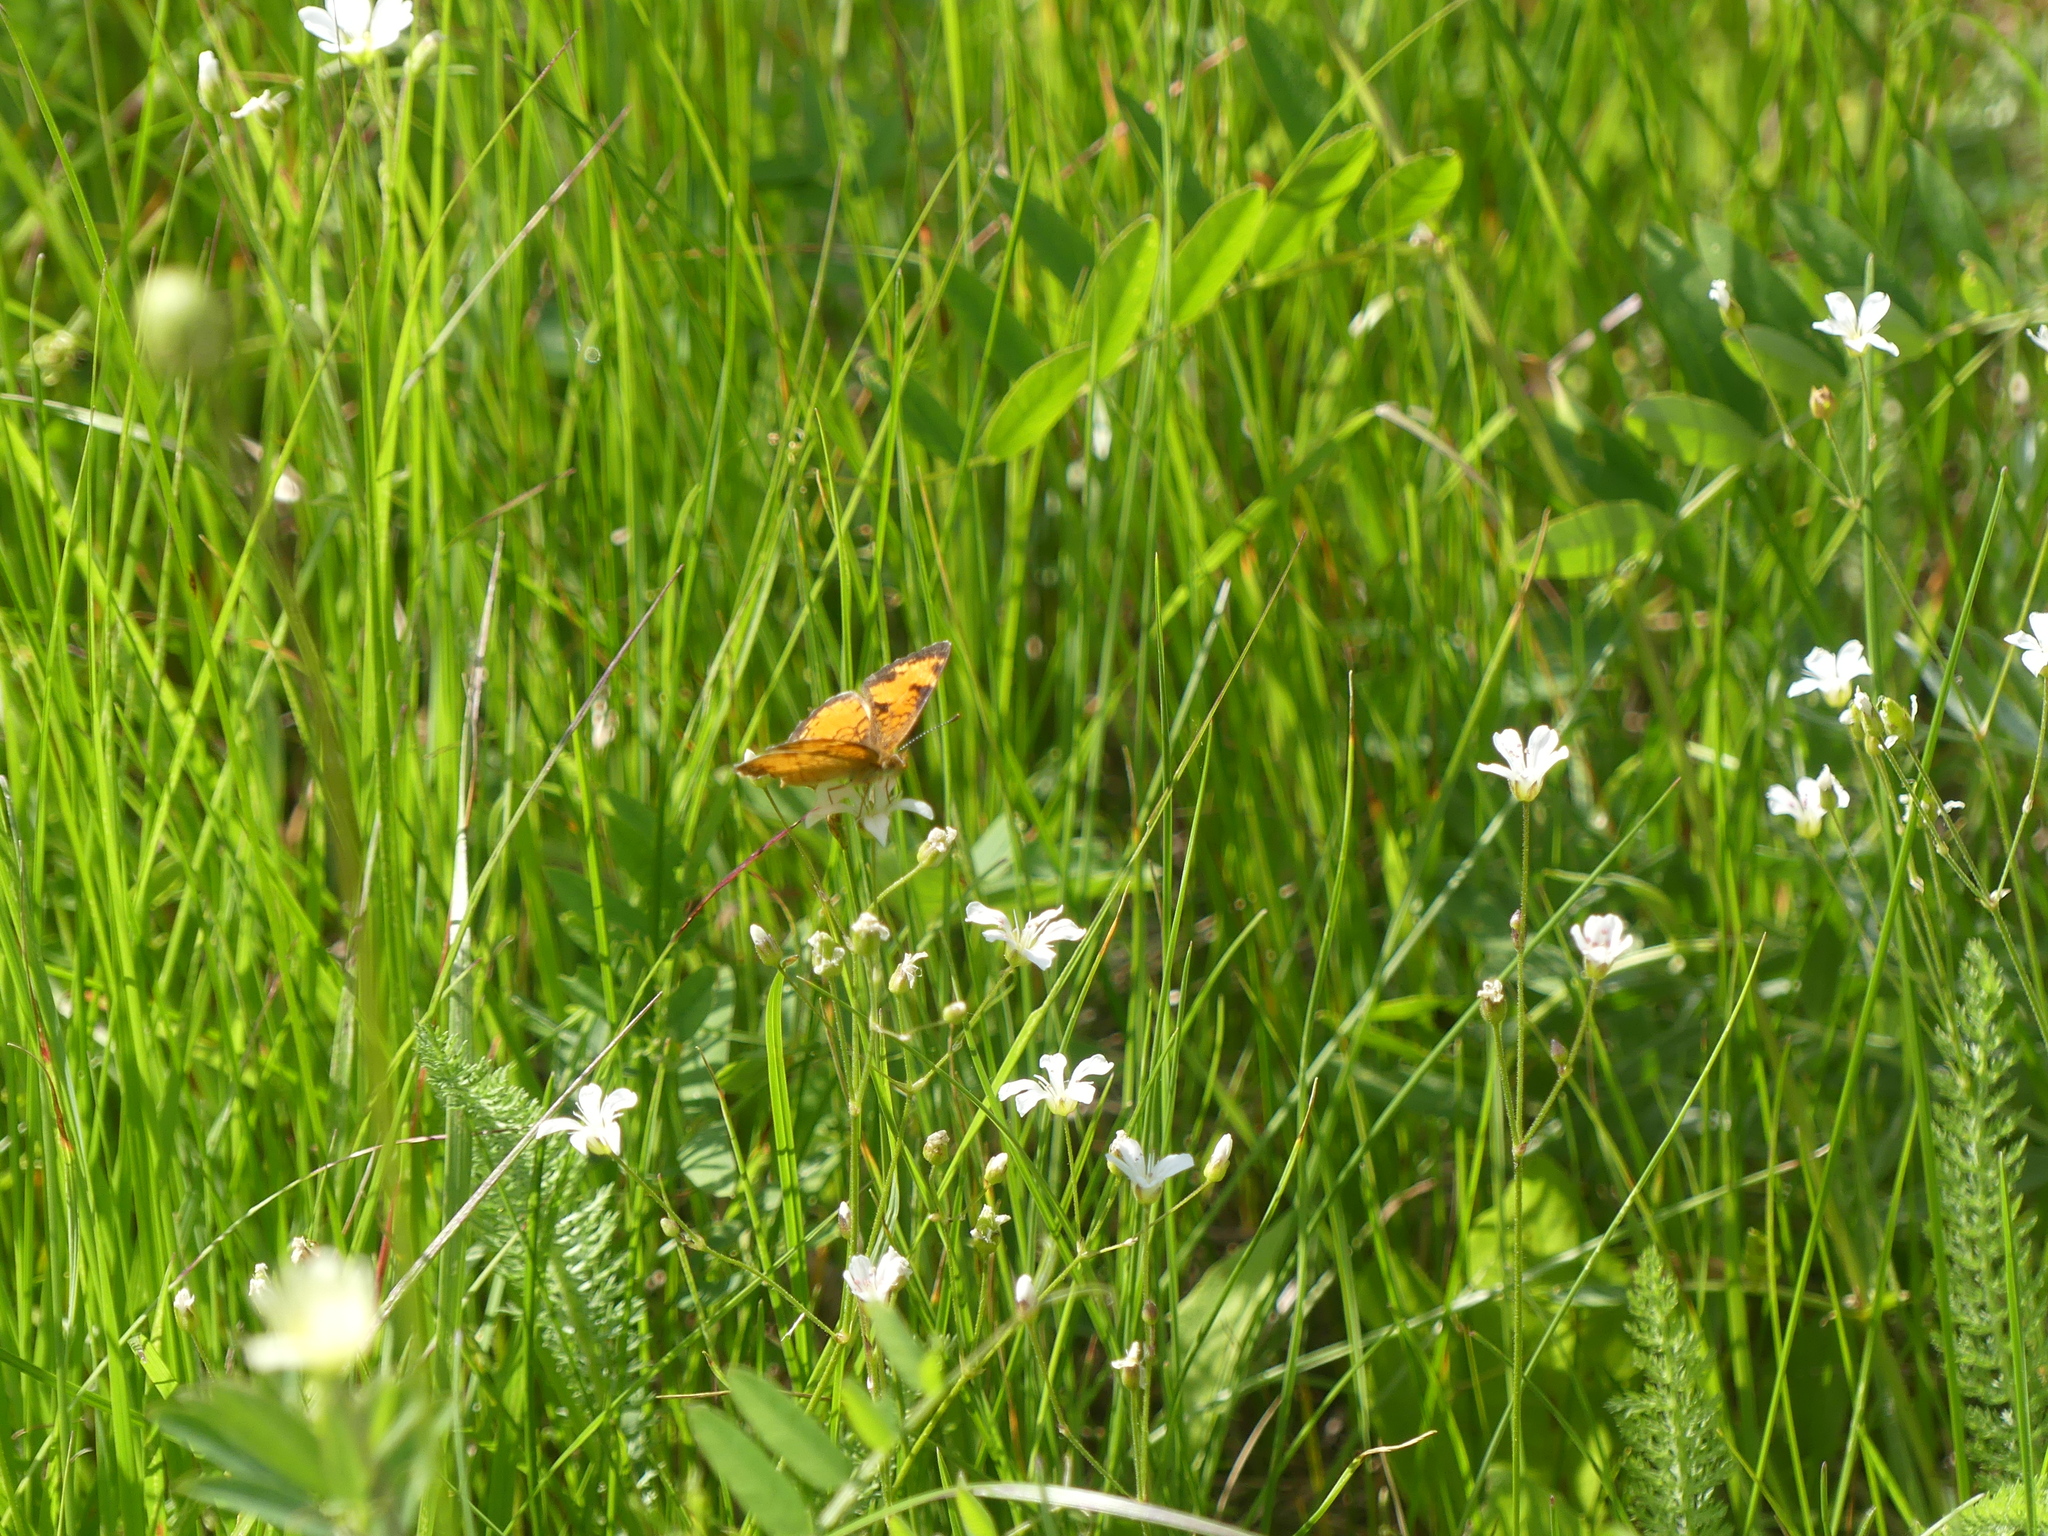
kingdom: Animalia
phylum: Arthropoda
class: Insecta
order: Lepidoptera
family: Nymphalidae
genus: Phyciodes
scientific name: Phyciodes tharos
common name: Pearl crescent
